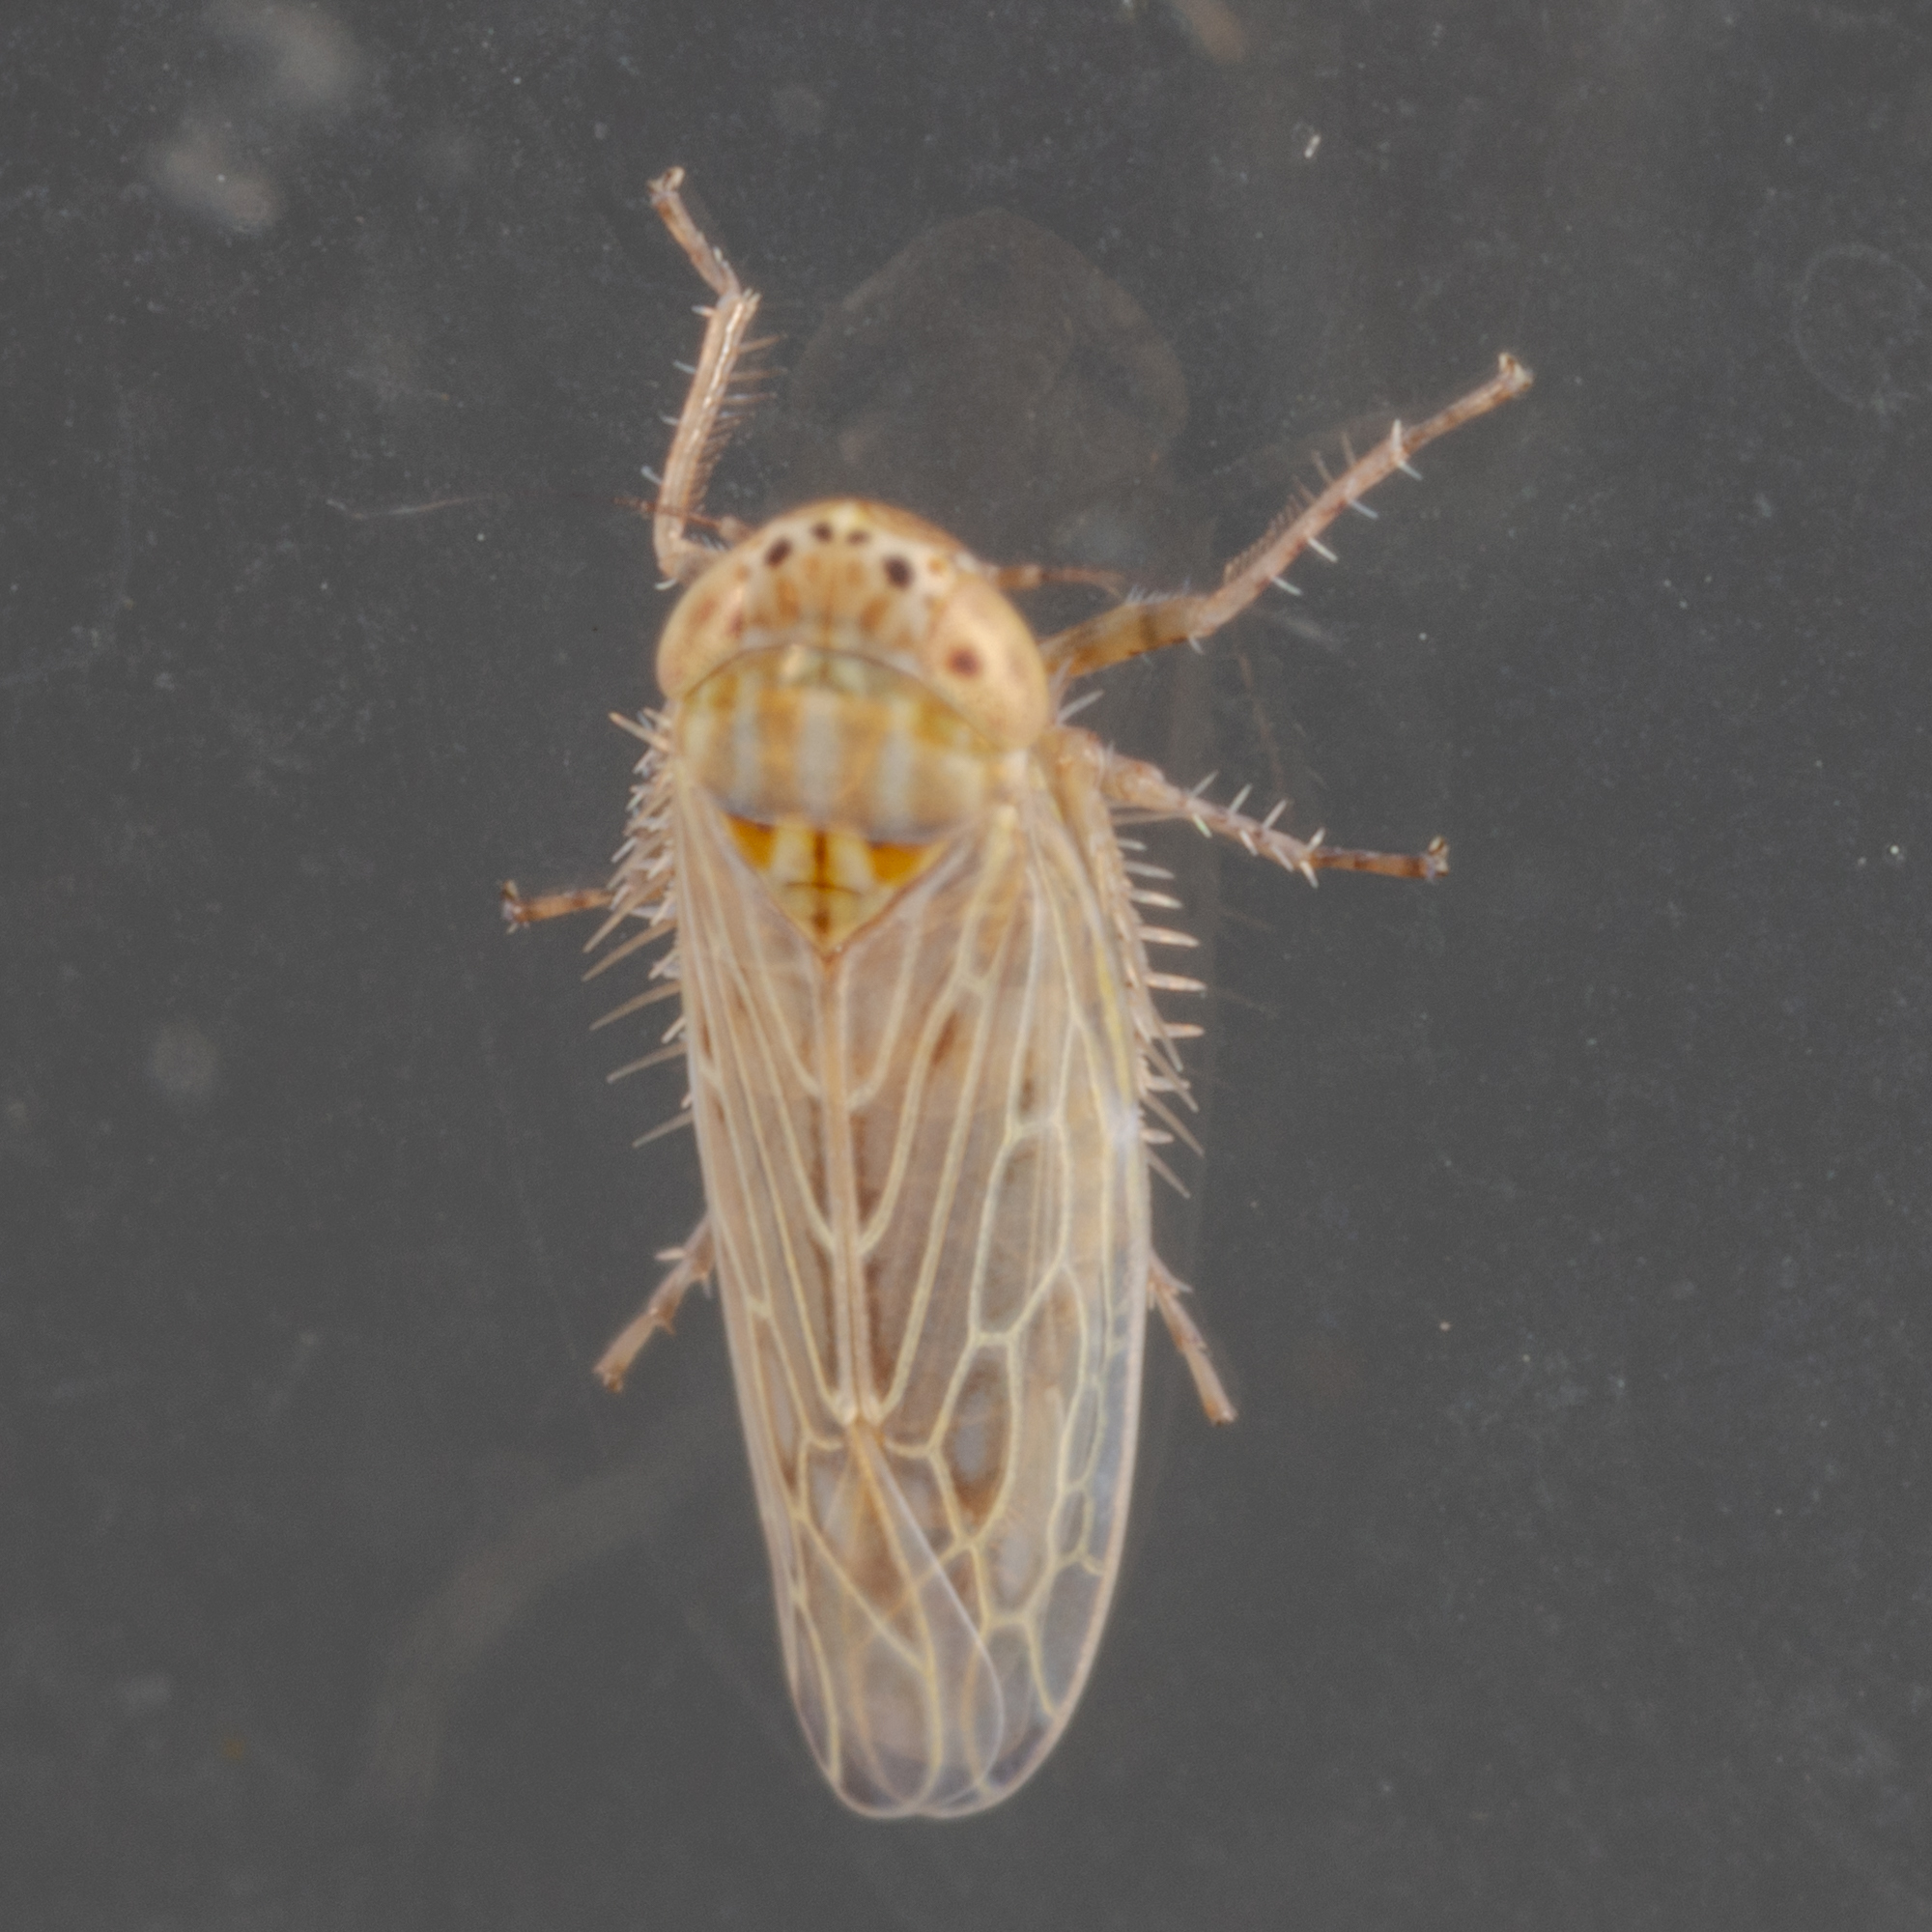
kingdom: Animalia
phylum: Arthropoda
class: Insecta
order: Hemiptera
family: Cicadellidae
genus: Graminella
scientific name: Graminella sonora
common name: Lesser lawn leafhopper
